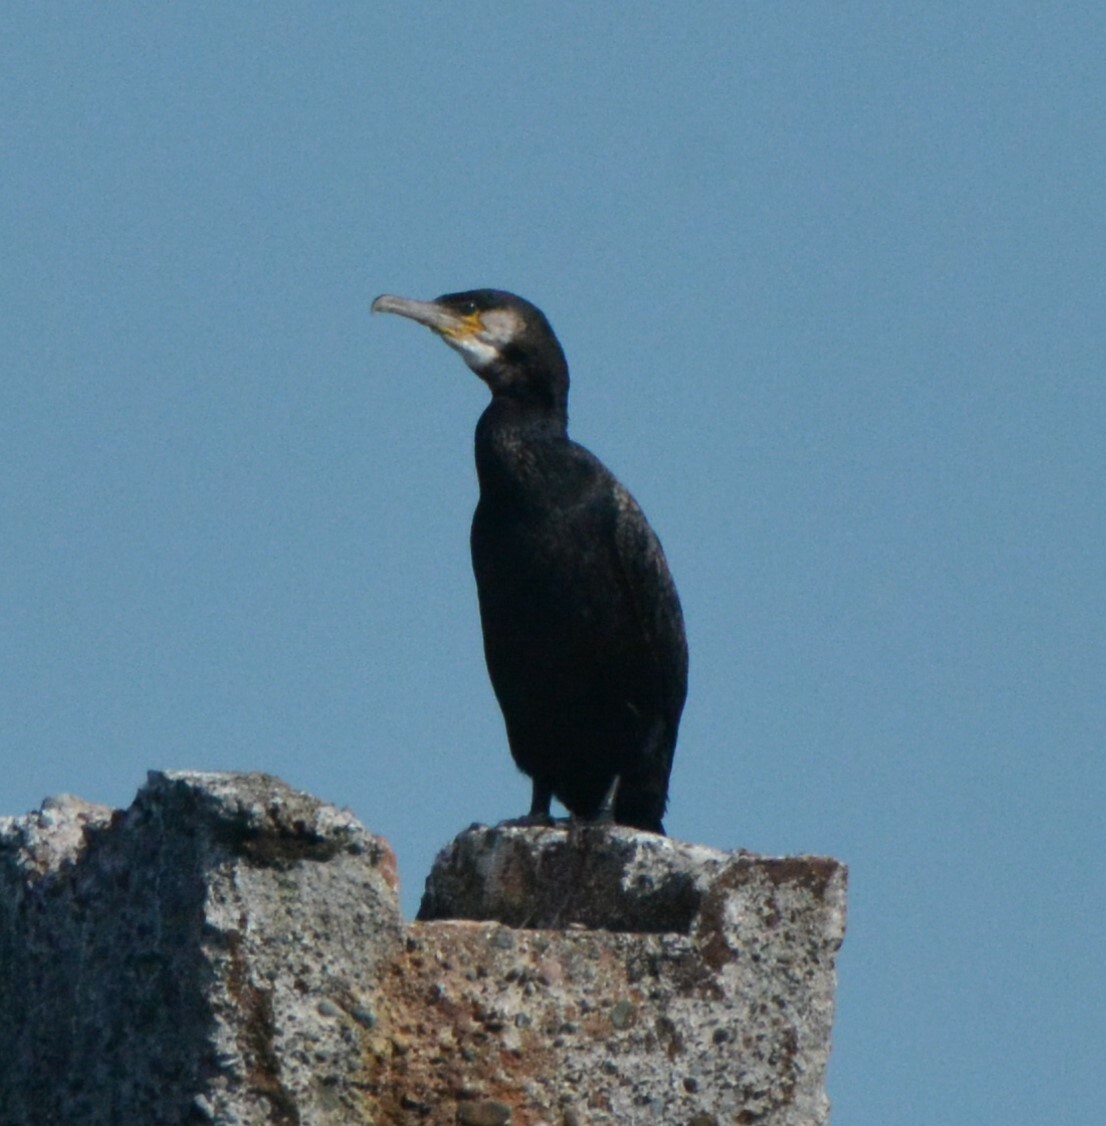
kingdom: Animalia
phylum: Chordata
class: Aves
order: Suliformes
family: Phalacrocoracidae
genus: Phalacrocorax
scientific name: Phalacrocorax carbo
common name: Great cormorant
